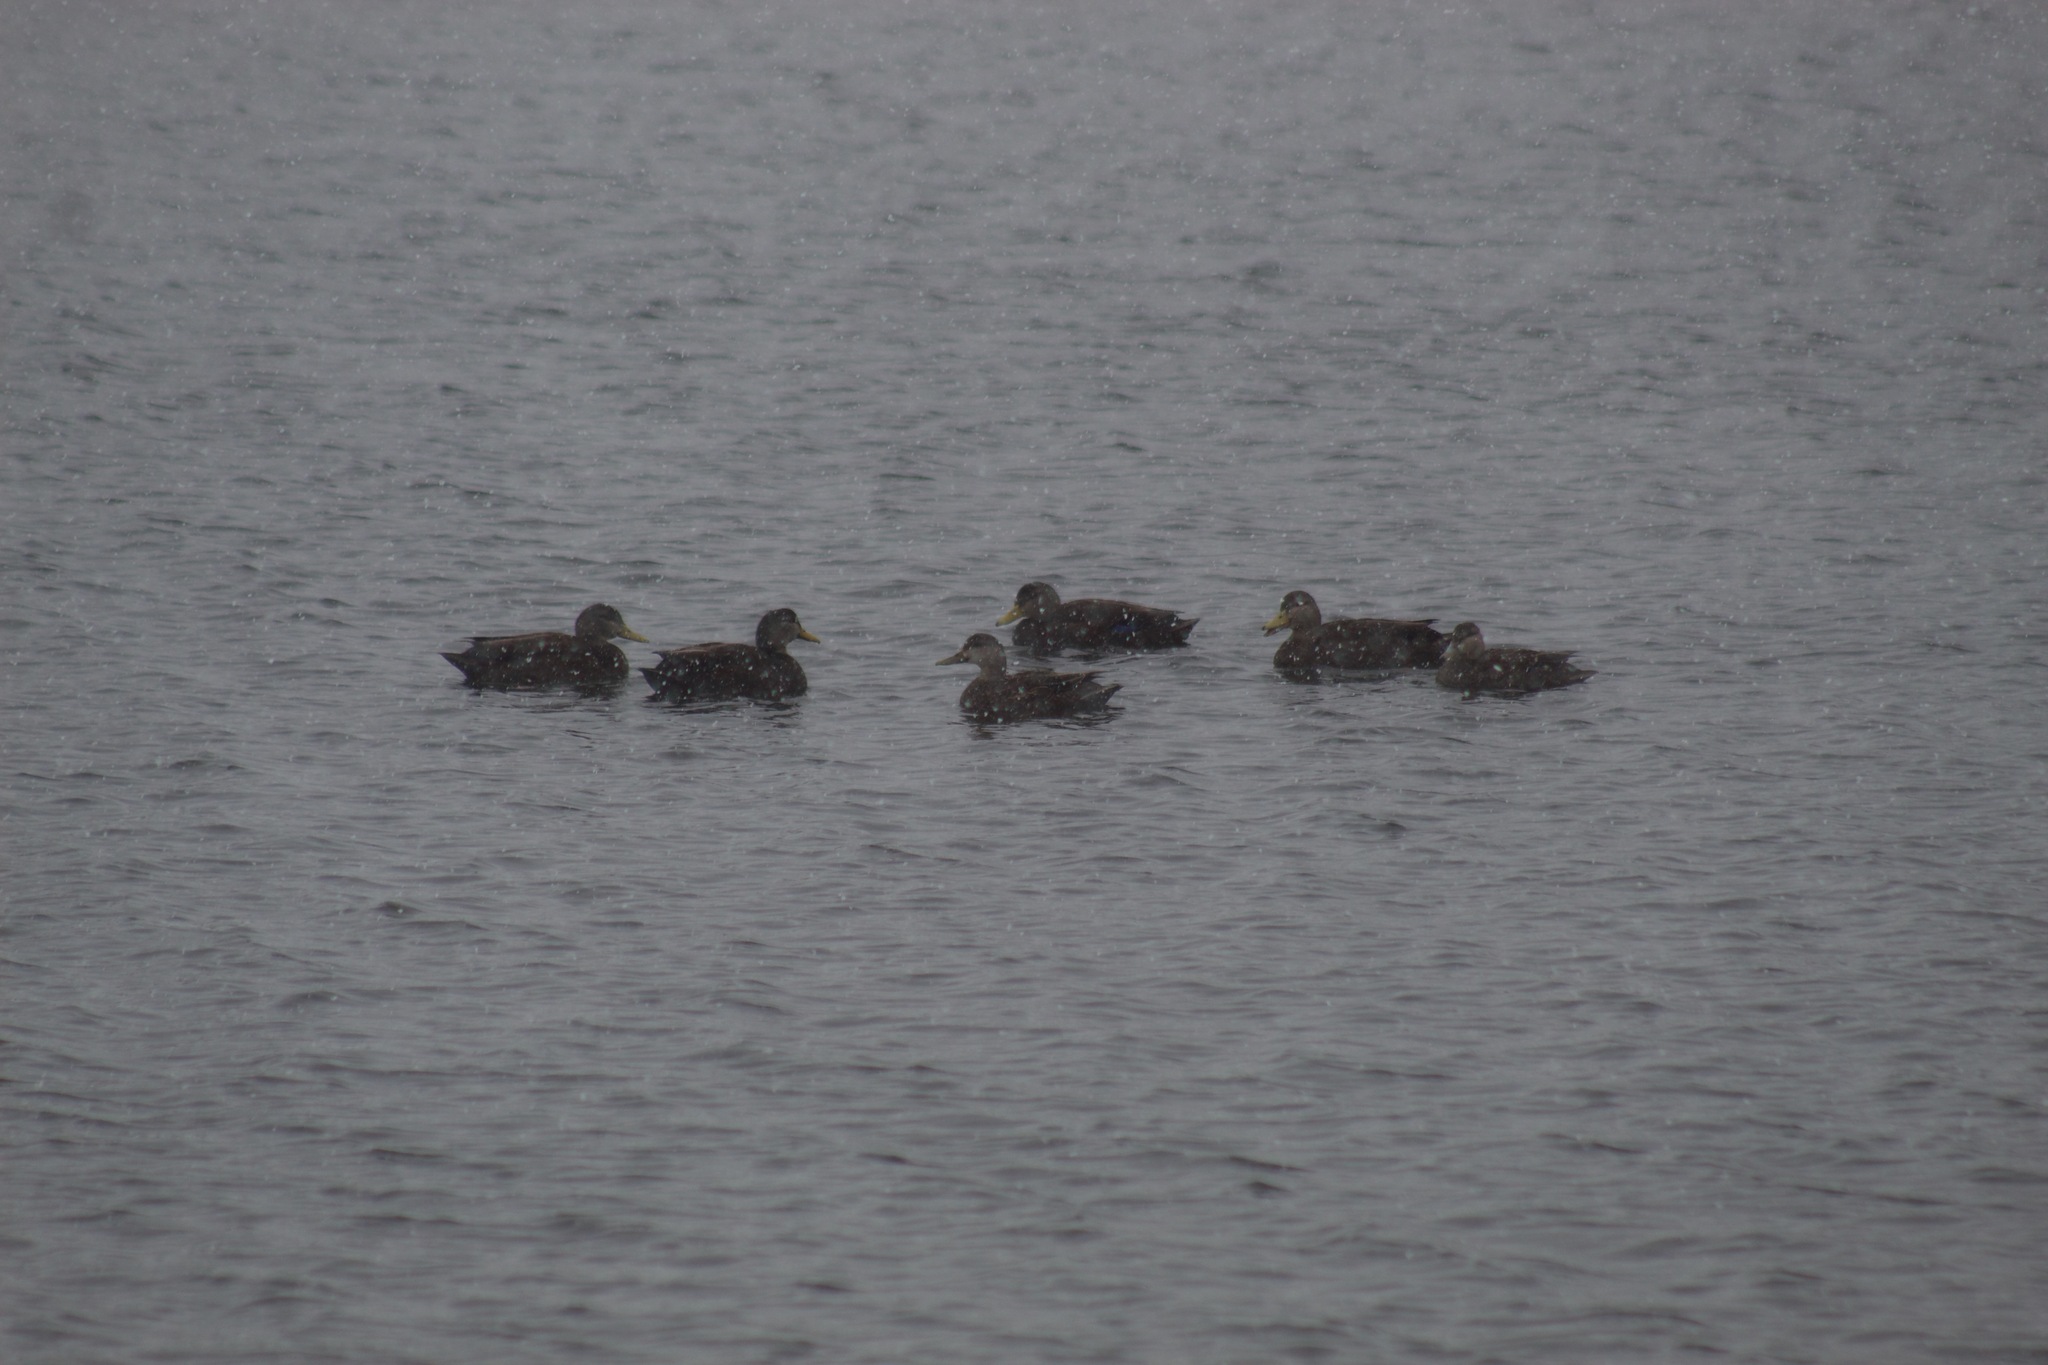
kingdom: Animalia
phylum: Chordata
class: Aves
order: Anseriformes
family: Anatidae
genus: Anas
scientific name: Anas rubripes
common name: American black duck
